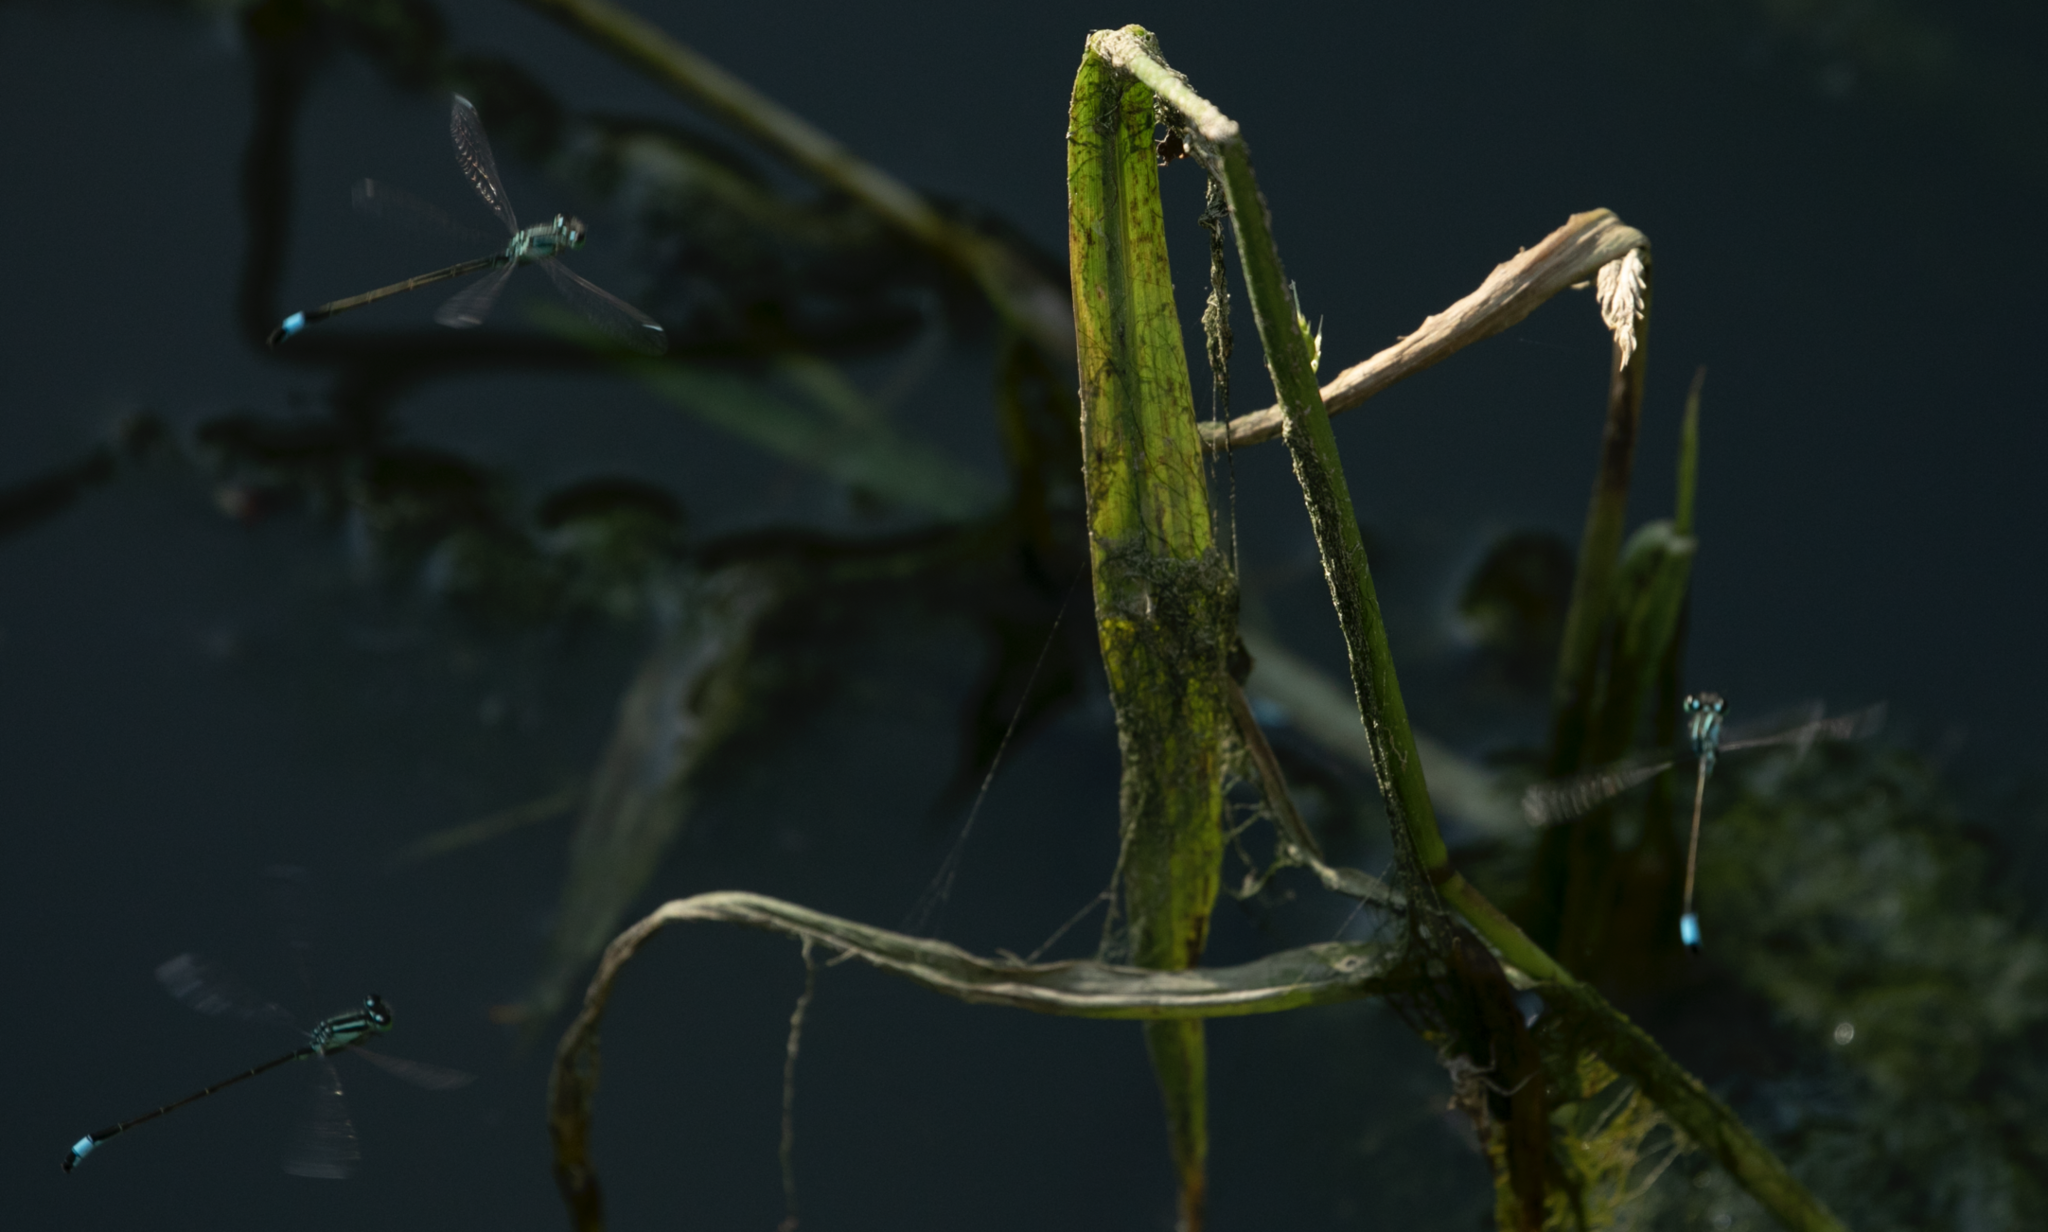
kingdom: Animalia
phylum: Arthropoda
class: Insecta
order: Odonata
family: Coenagrionidae
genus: Ischnura
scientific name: Ischnura elegans
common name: Blue-tailed damselfly
